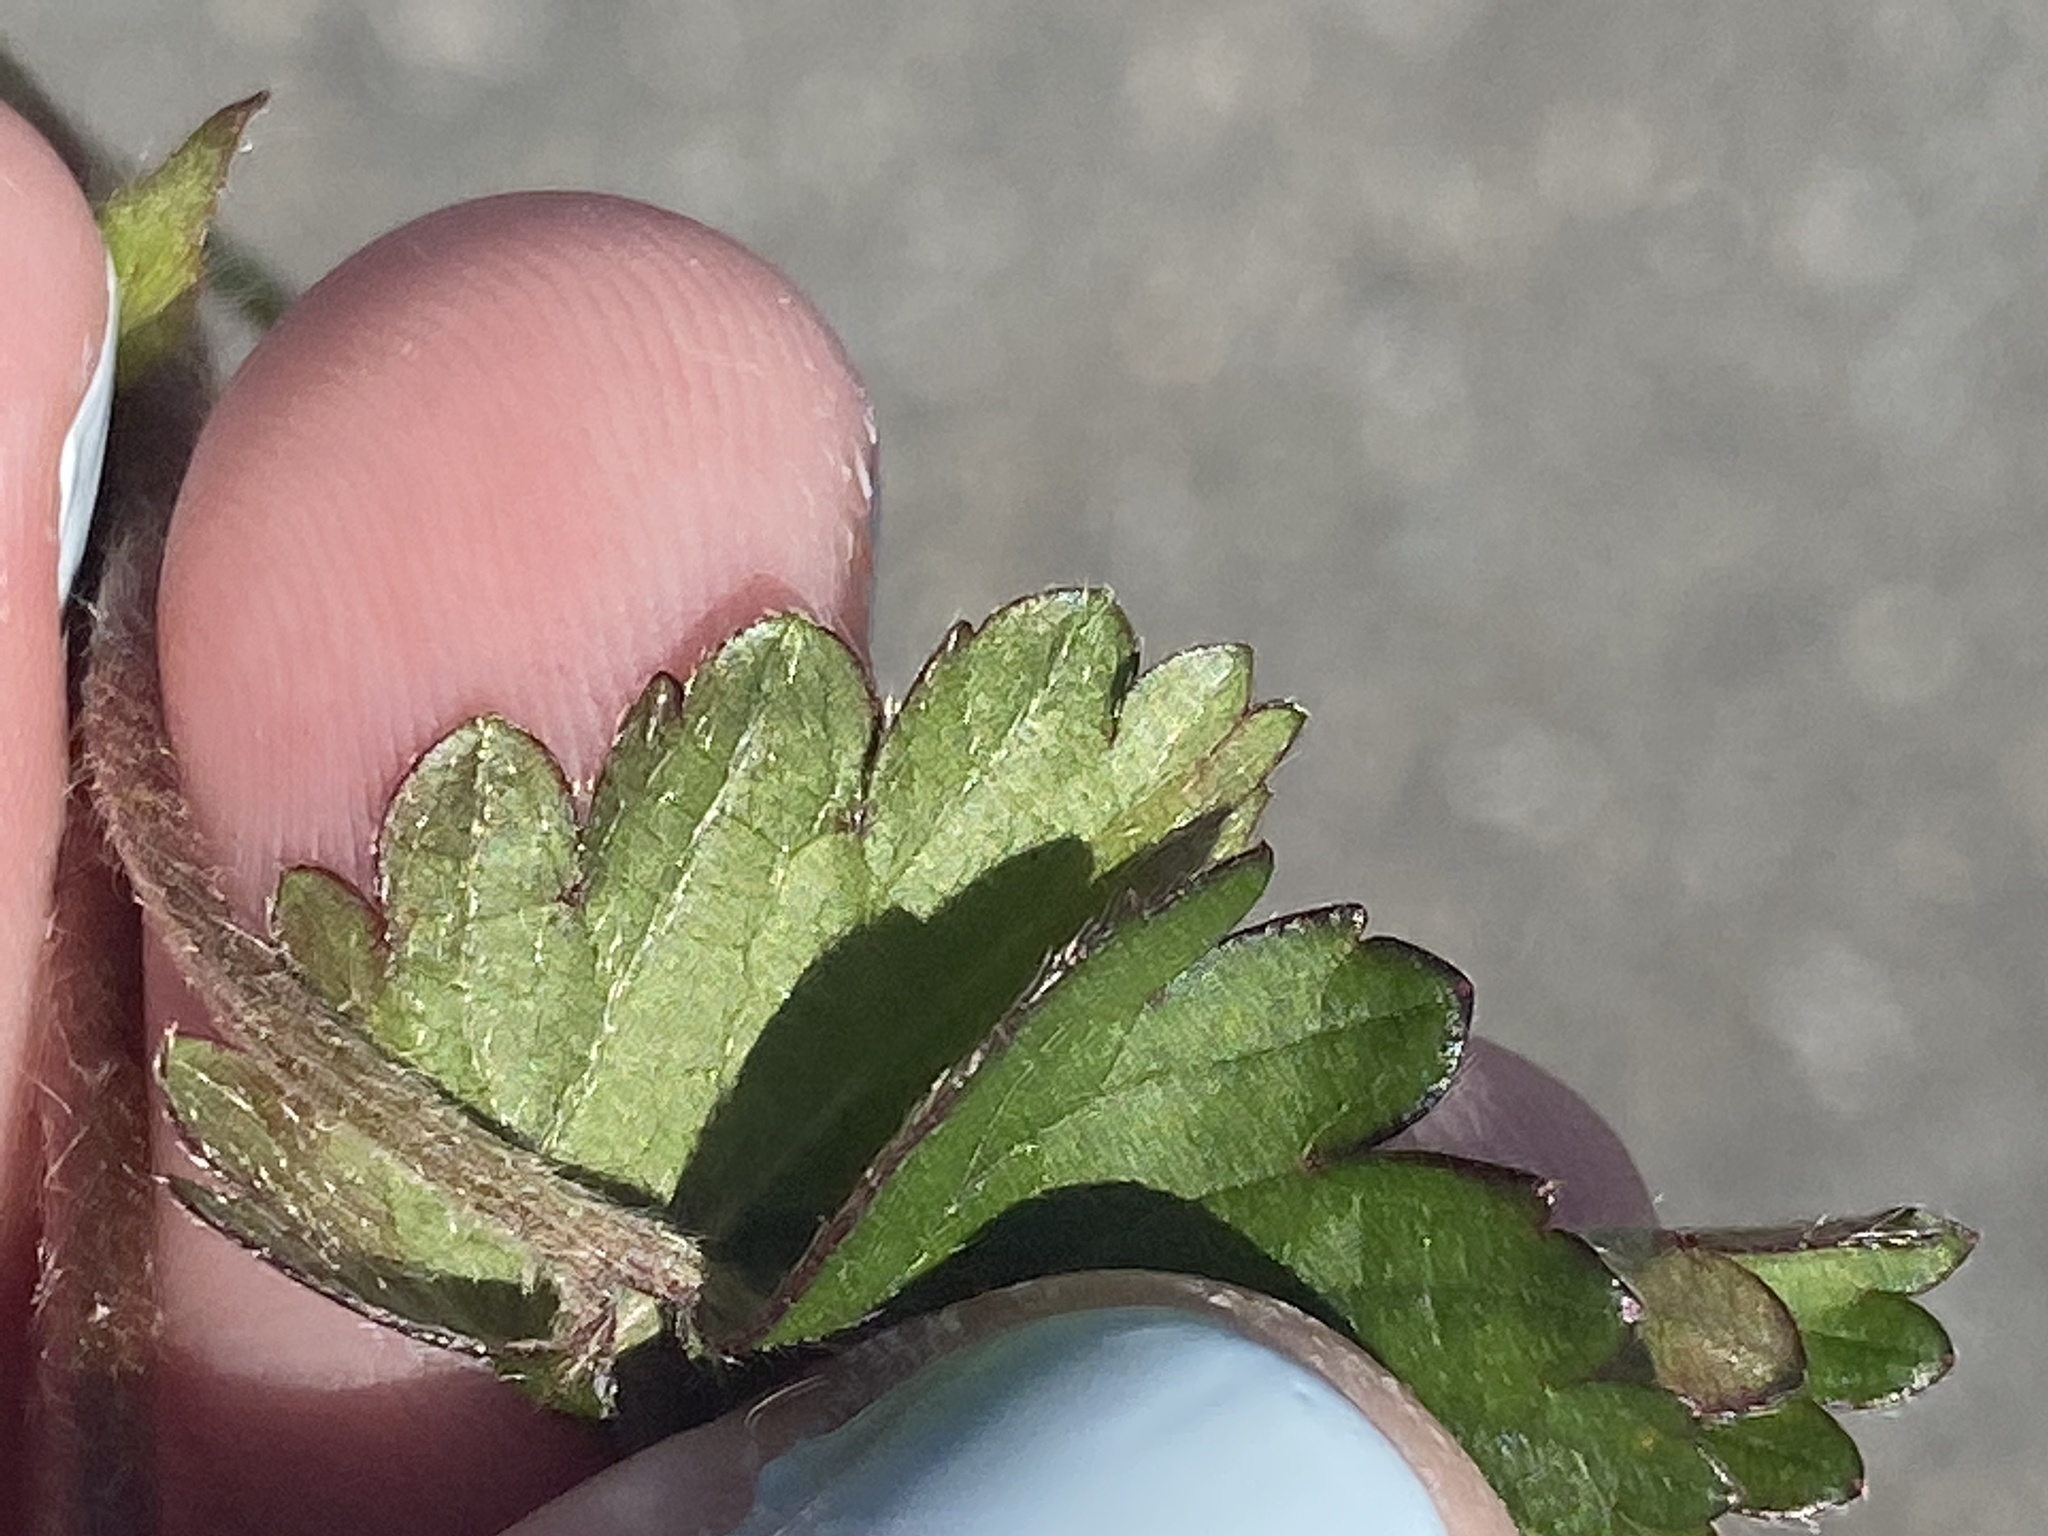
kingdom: Plantae
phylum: Tracheophyta
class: Magnoliopsida
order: Rosales
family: Rosaceae
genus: Potentilla
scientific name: Potentilla indica
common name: Yellow-flowered strawberry
